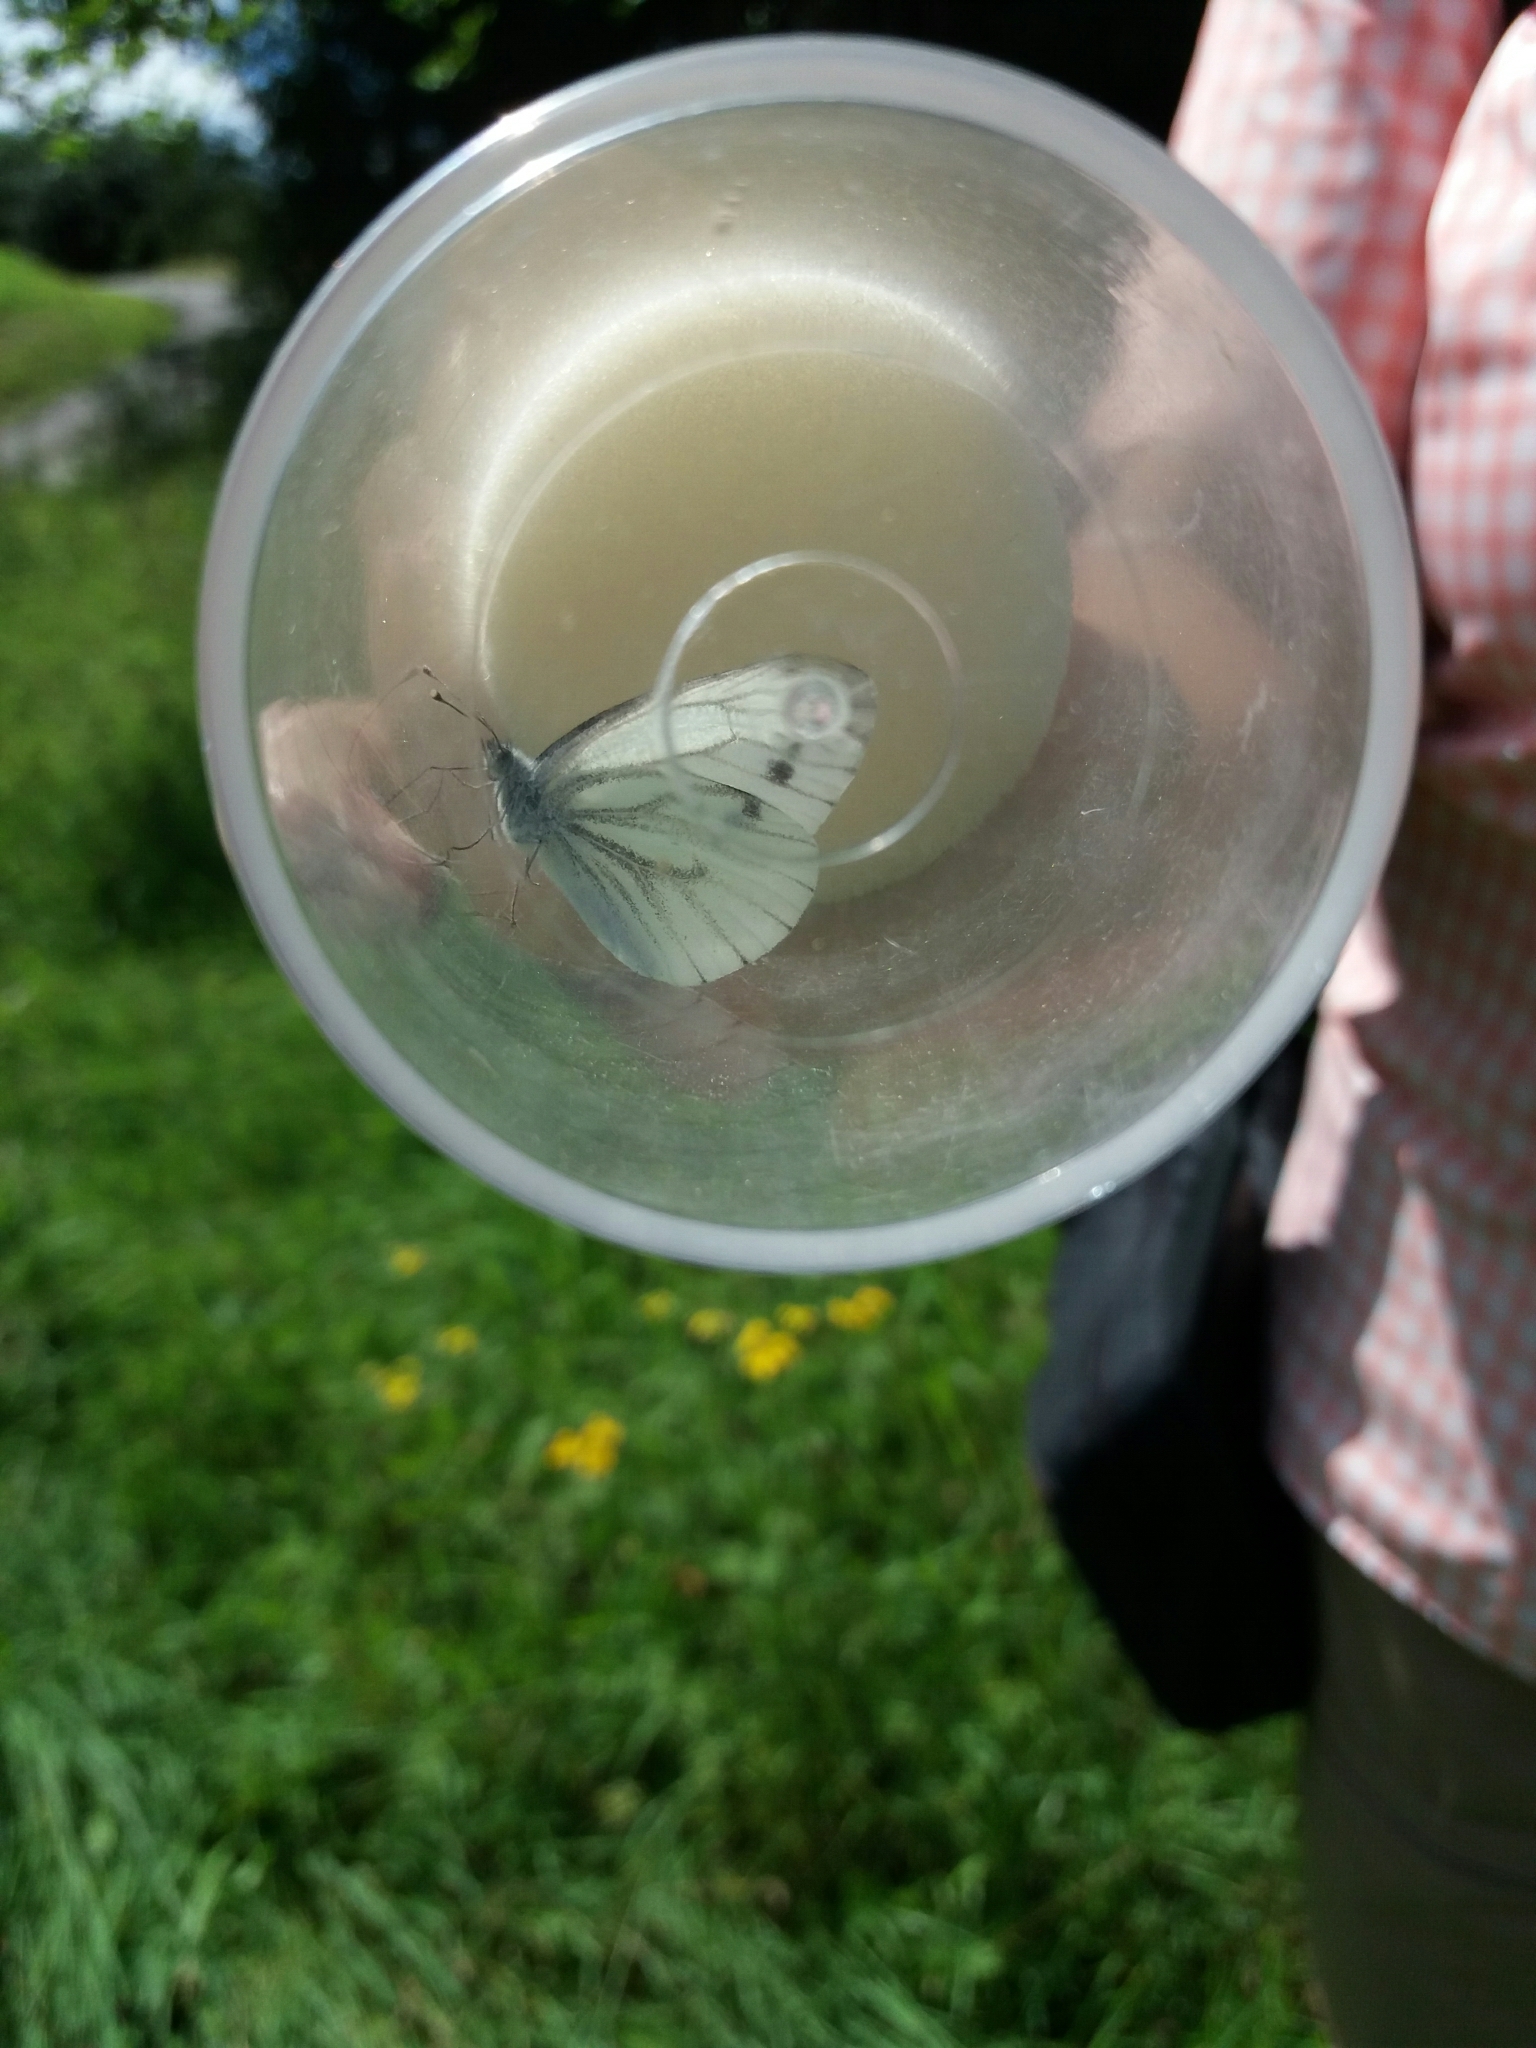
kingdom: Animalia
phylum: Arthropoda
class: Insecta
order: Lepidoptera
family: Pieridae
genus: Pieris
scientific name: Pieris napi
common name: Green-veined white
